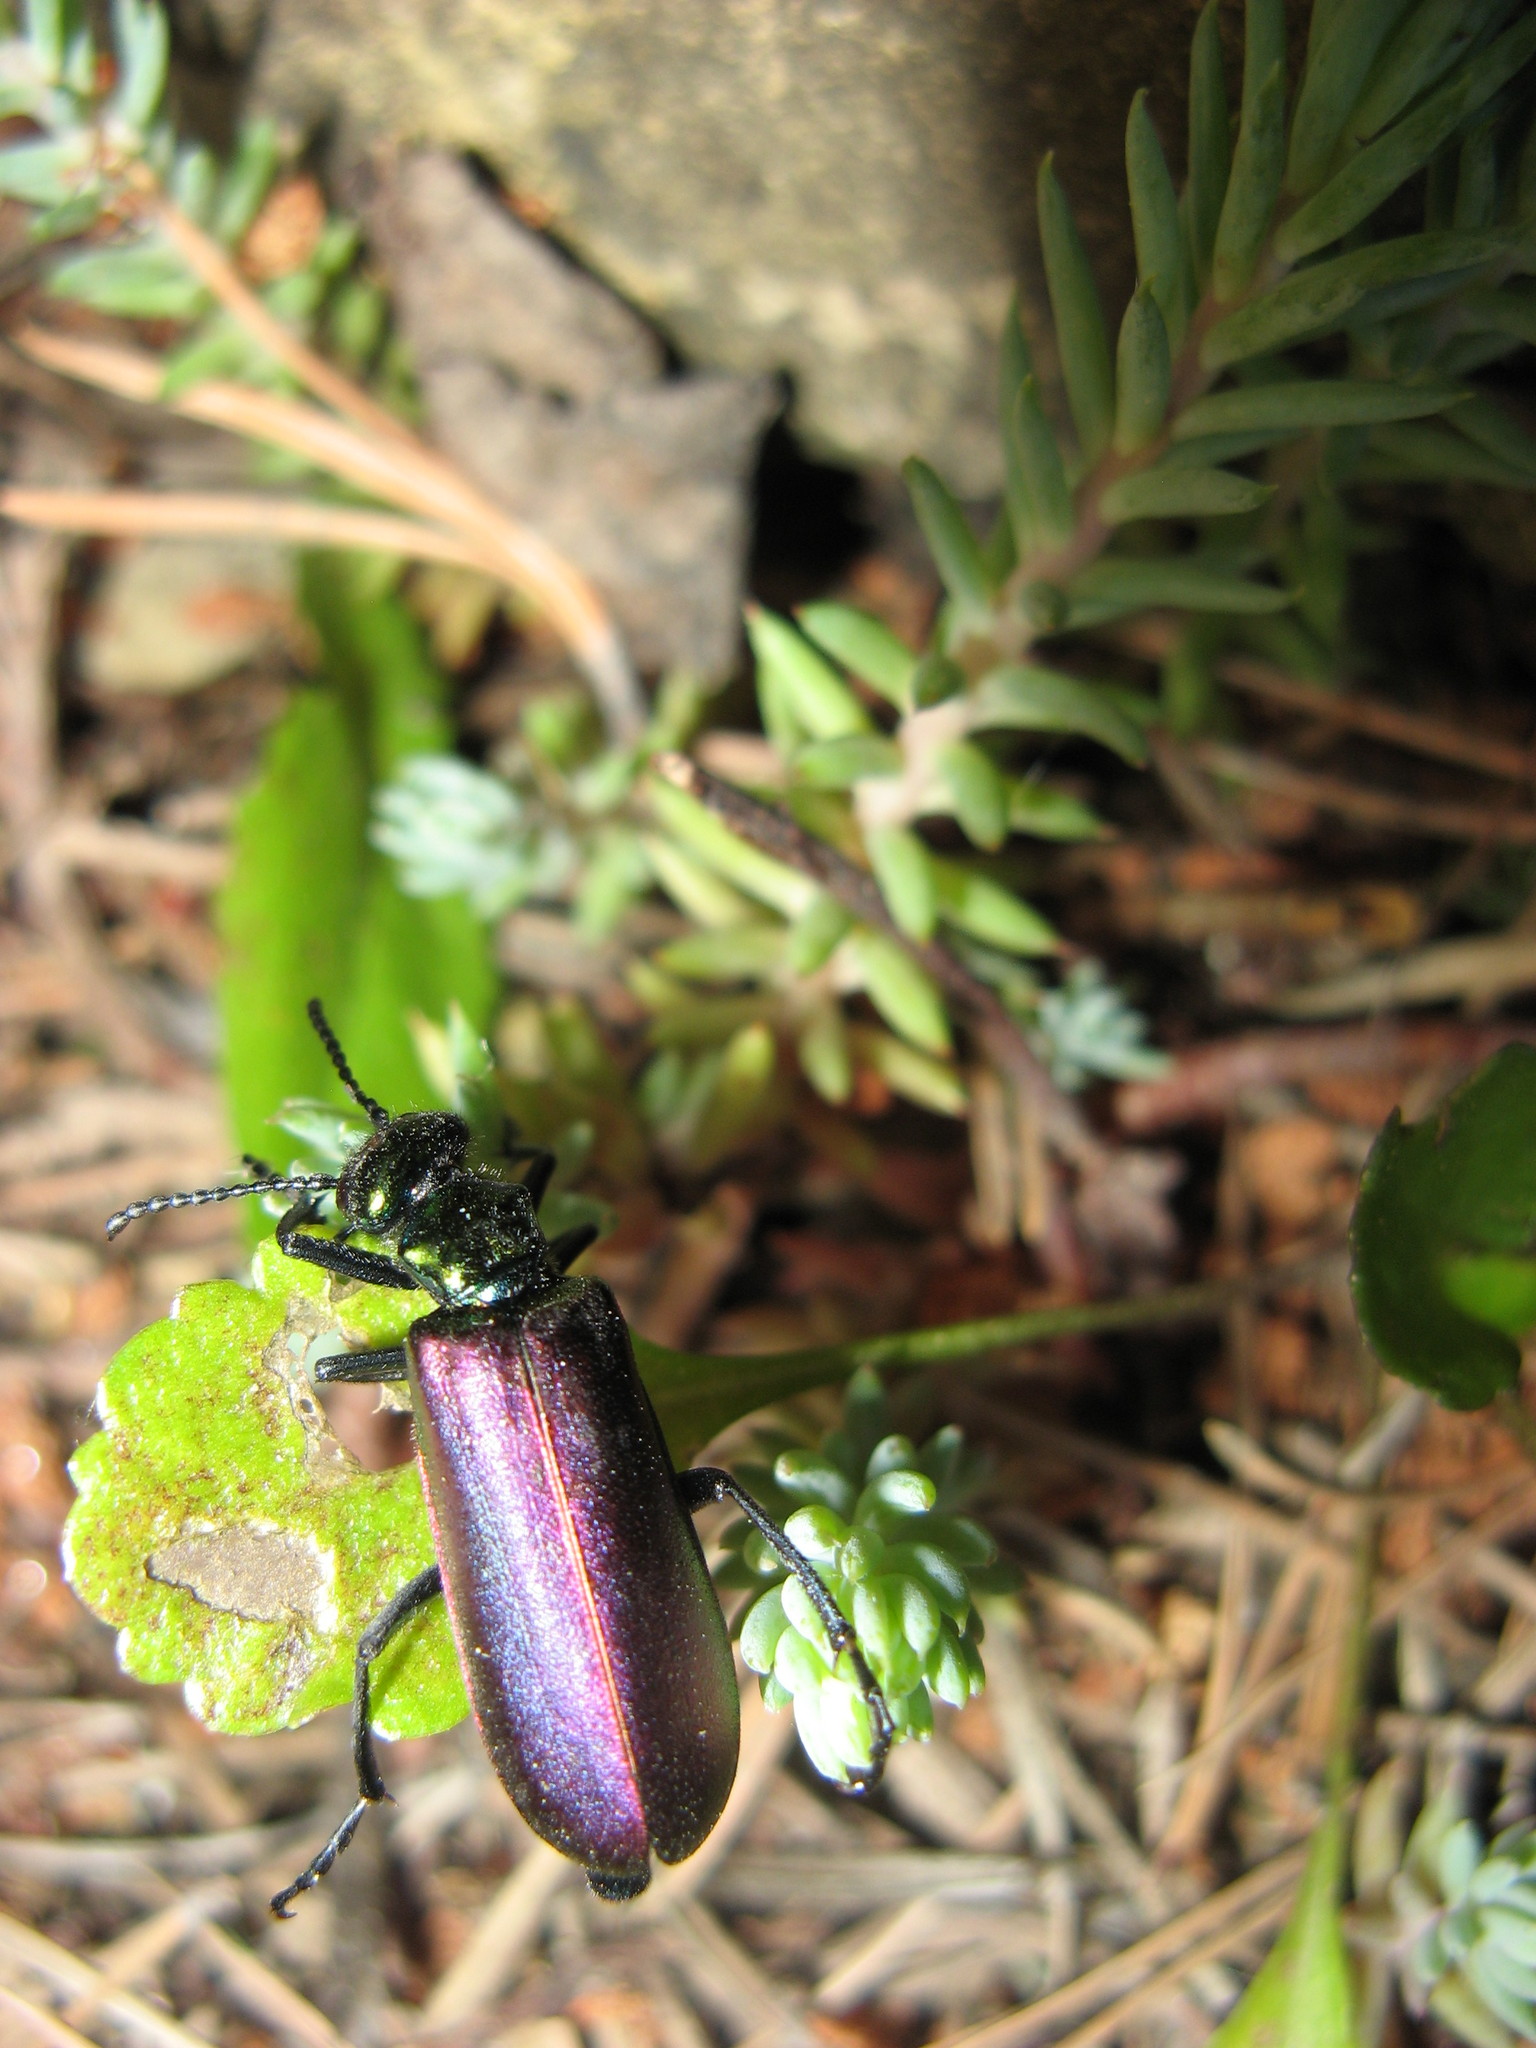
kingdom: Animalia
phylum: Arthropoda
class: Insecta
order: Coleoptera
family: Meloidae
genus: Lytta
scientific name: Lytta nuttallii
